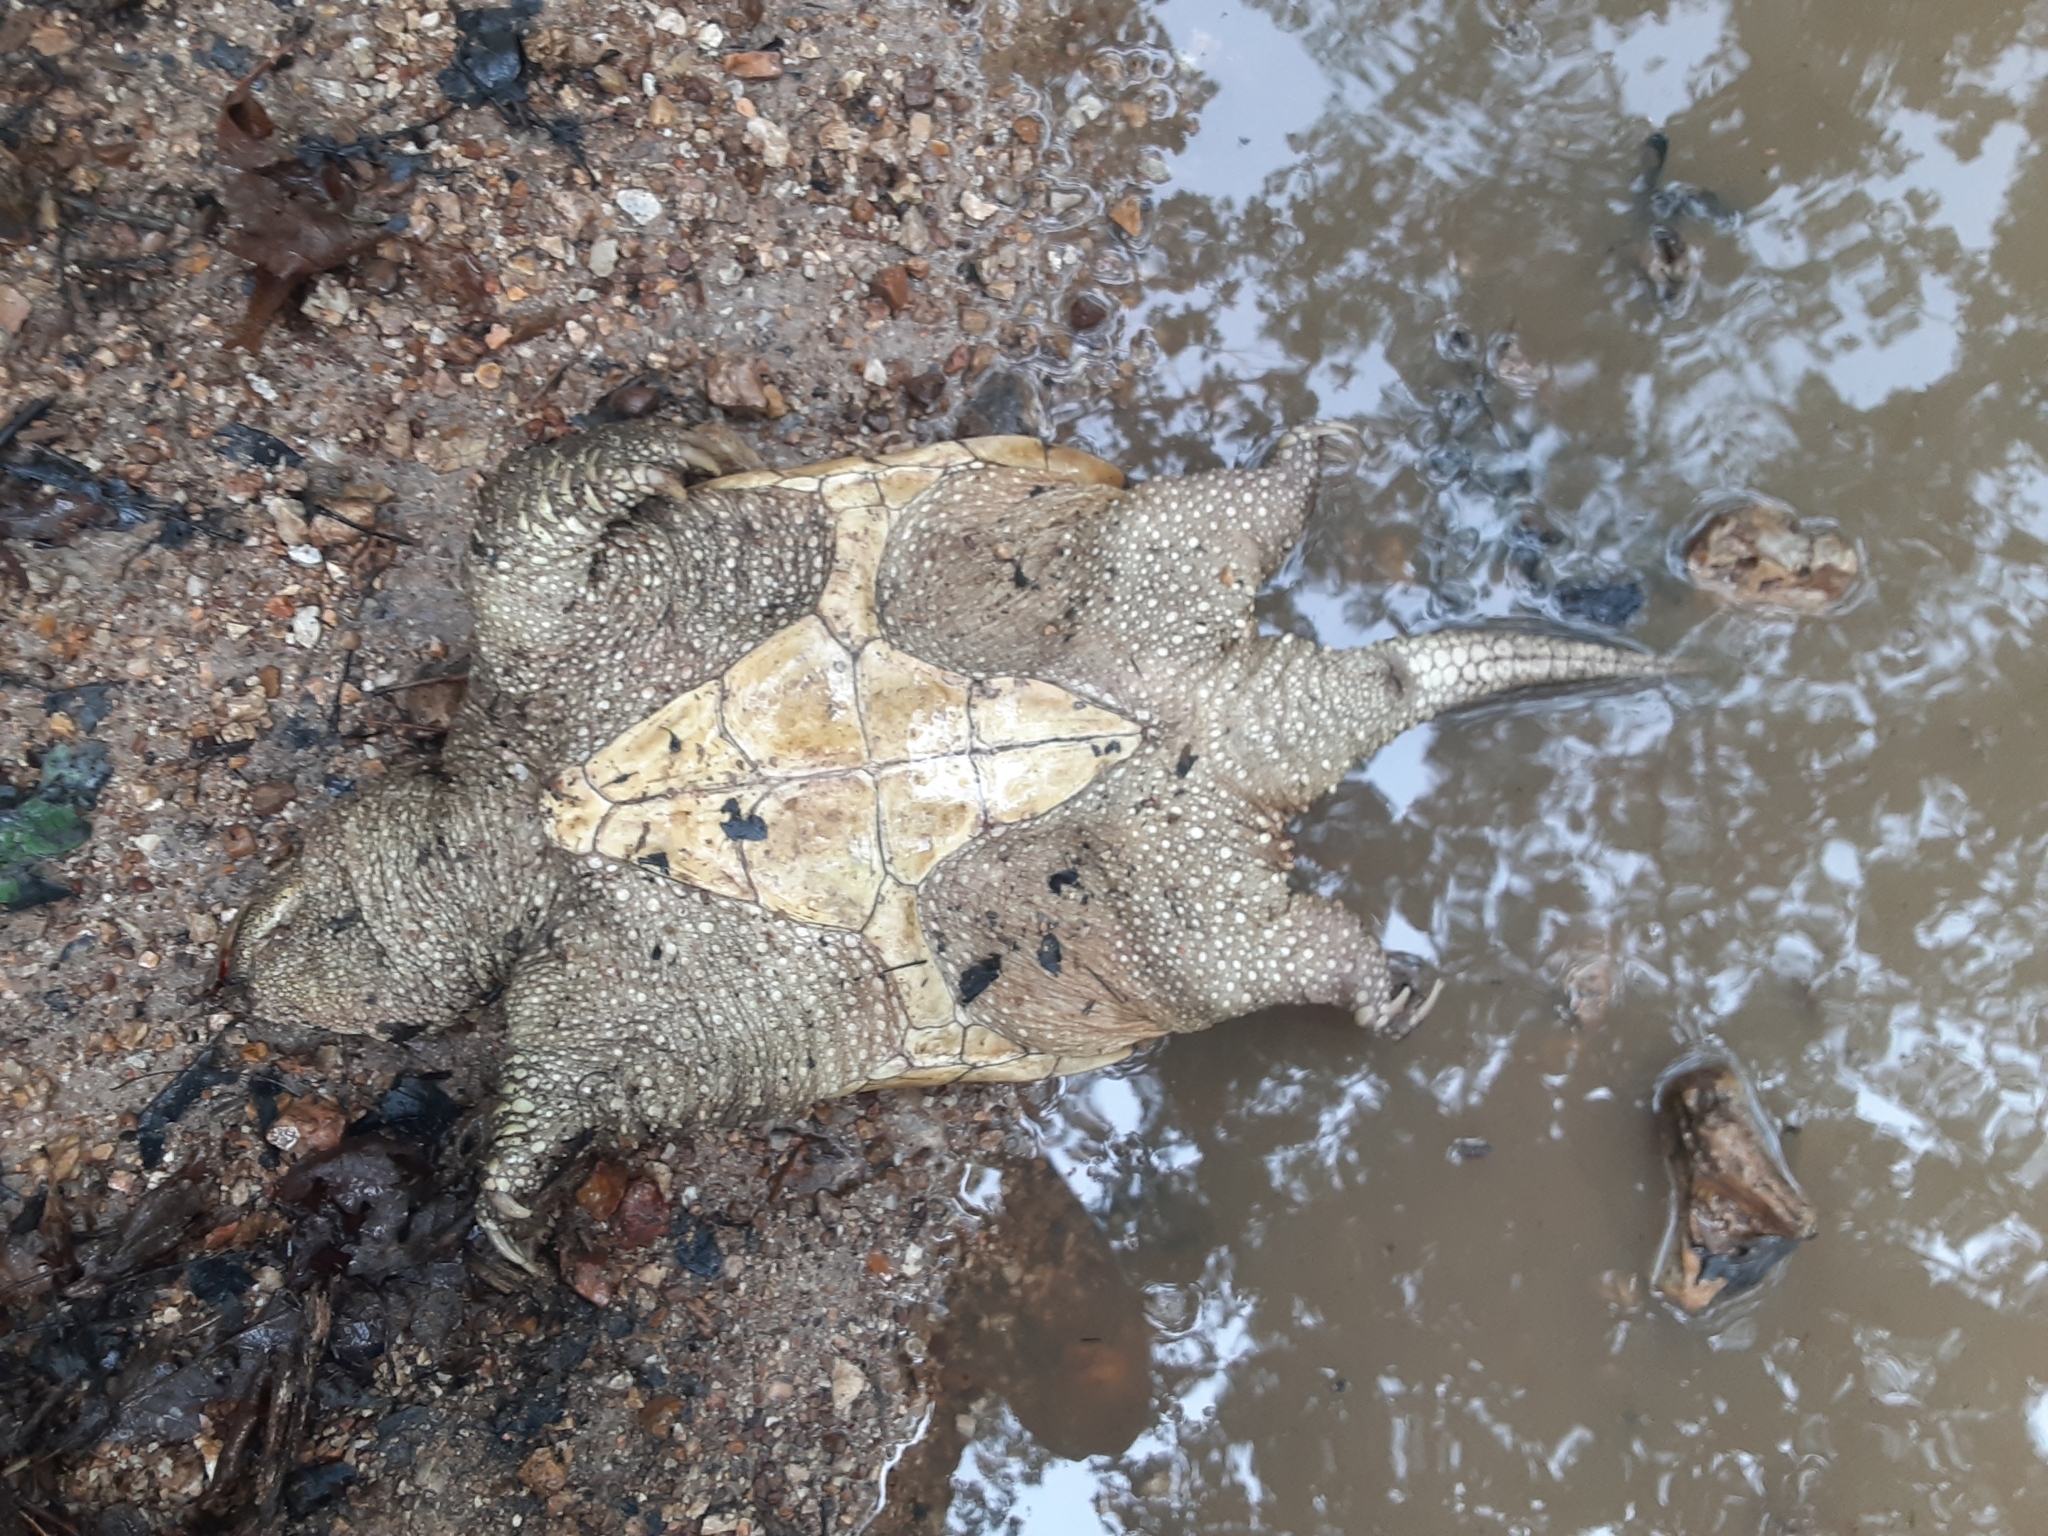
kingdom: Animalia
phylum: Chordata
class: Testudines
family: Chelydridae
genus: Chelydra
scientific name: Chelydra serpentina
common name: Common snapping turtle
